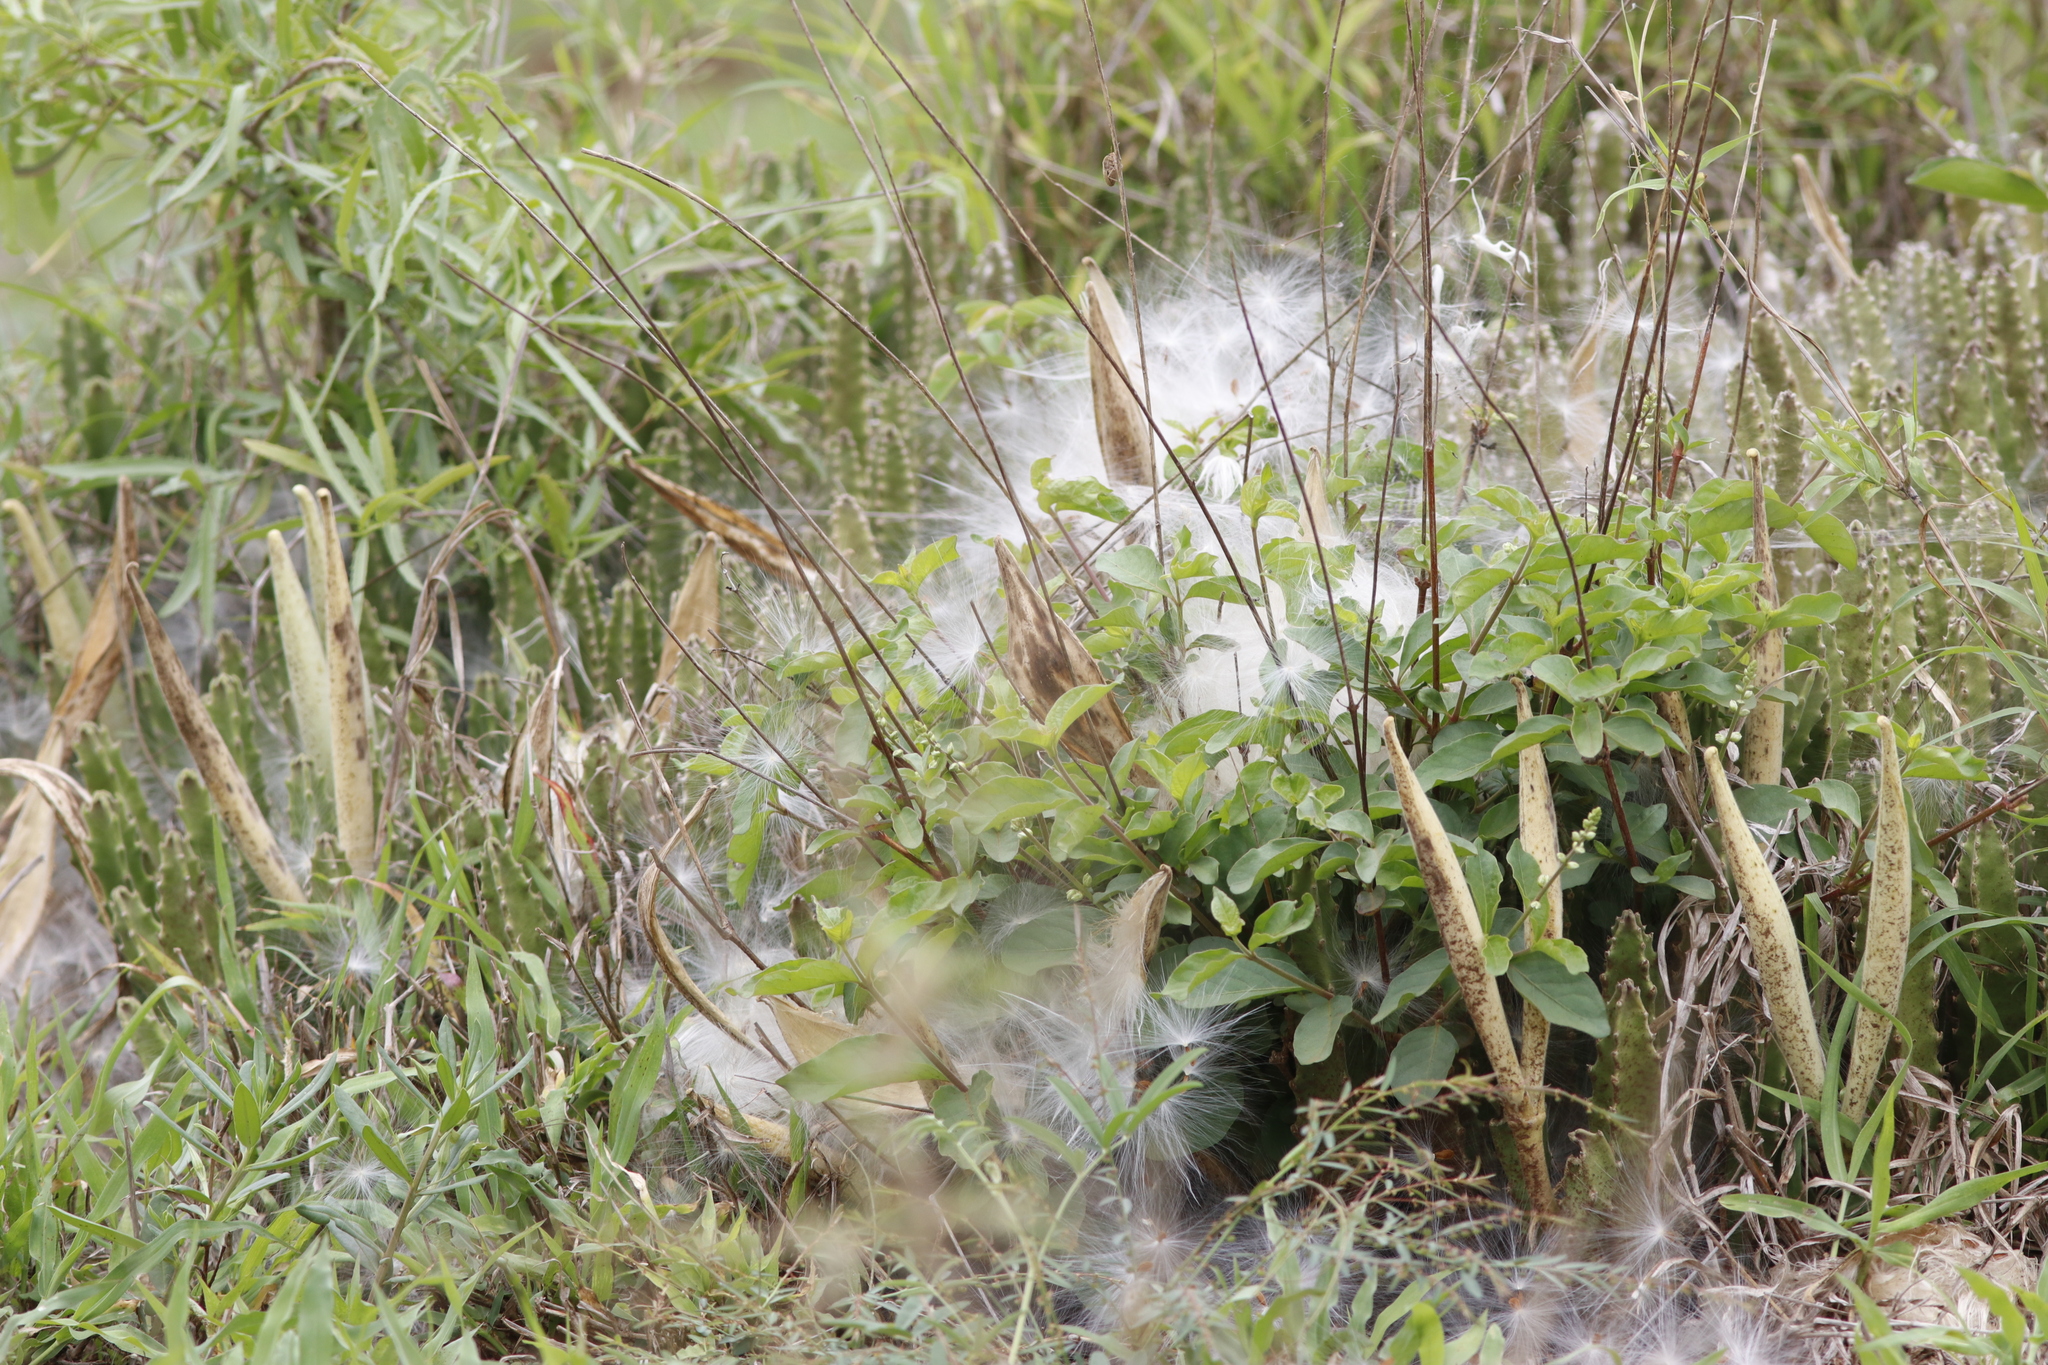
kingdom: Plantae
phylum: Tracheophyta
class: Magnoliopsida
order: Gentianales
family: Apocynaceae
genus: Ceropegia
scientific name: Ceropegia gigantea
